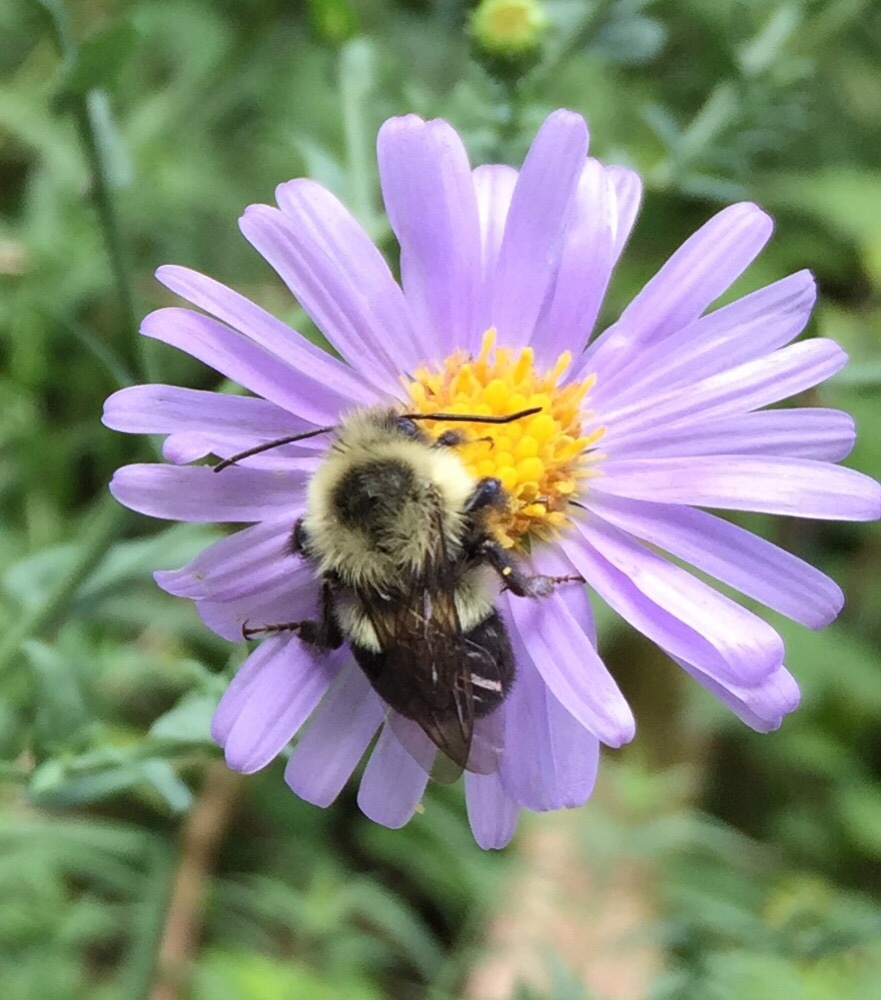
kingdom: Animalia
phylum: Arthropoda
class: Insecta
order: Hymenoptera
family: Apidae
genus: Bombus
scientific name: Bombus impatiens
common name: Common eastern bumble bee
